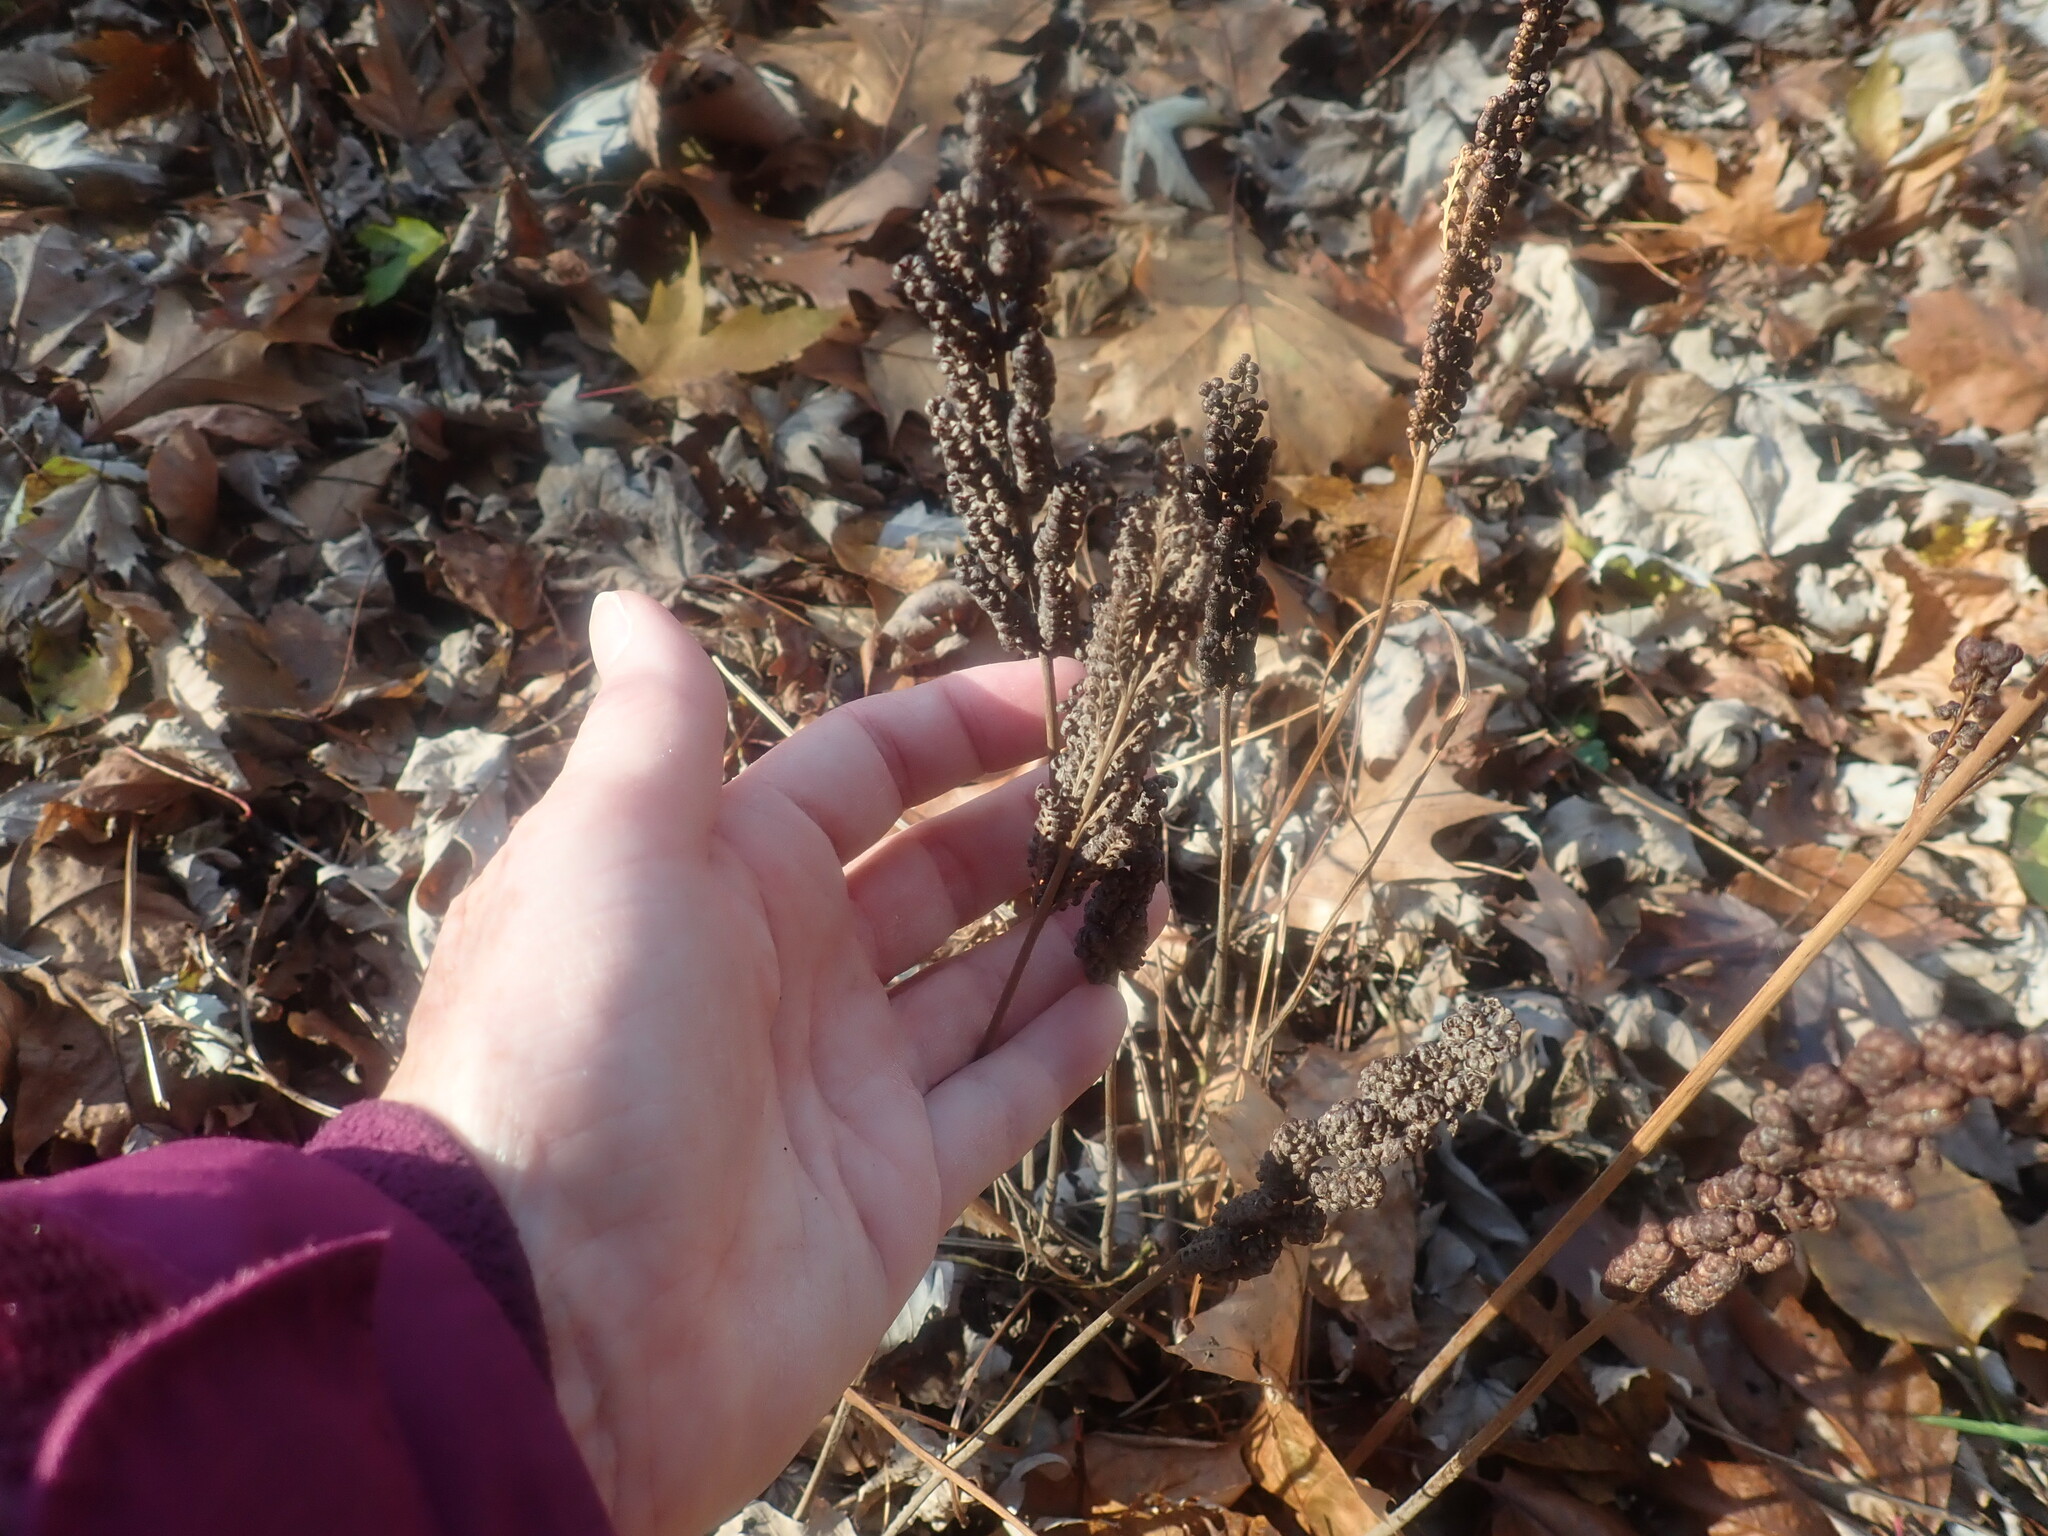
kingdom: Plantae
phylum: Tracheophyta
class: Polypodiopsida
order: Polypodiales
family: Onocleaceae
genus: Onoclea
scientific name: Onoclea sensibilis
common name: Sensitive fern
